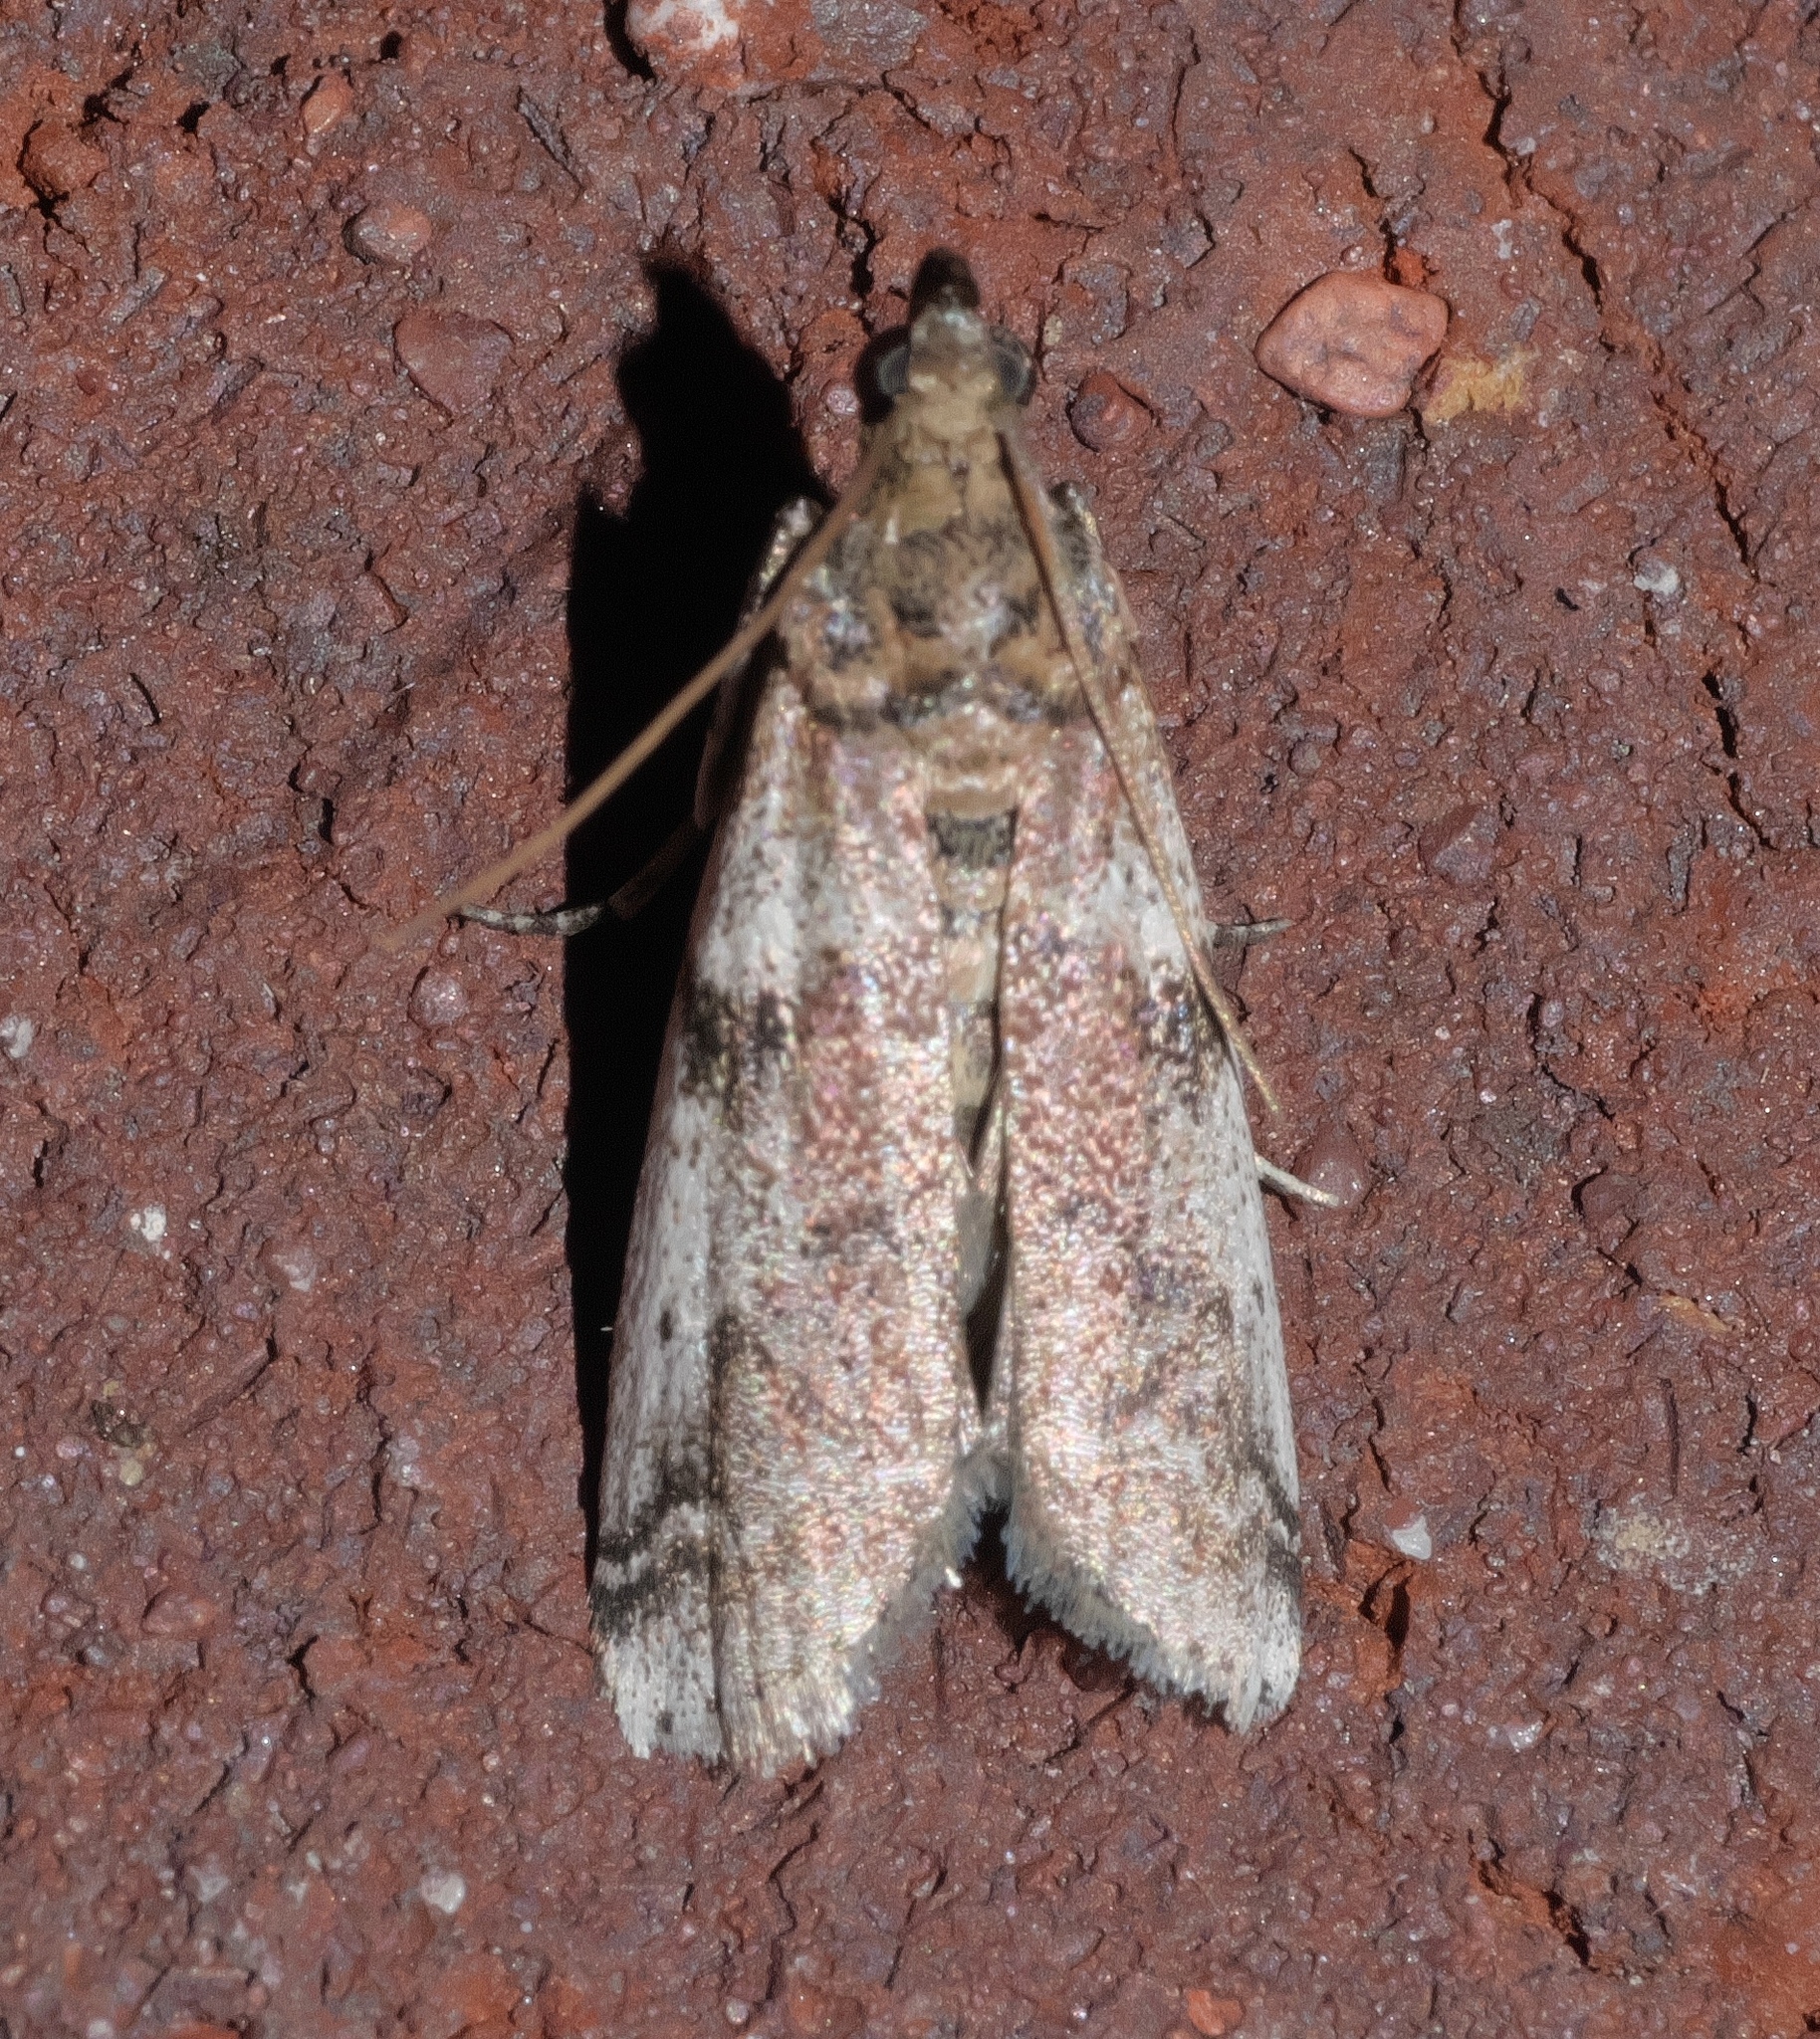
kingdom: Animalia
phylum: Arthropoda
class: Insecta
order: Lepidoptera
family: Pyralidae
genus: Laetilia
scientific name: Laetilia coccidivora
